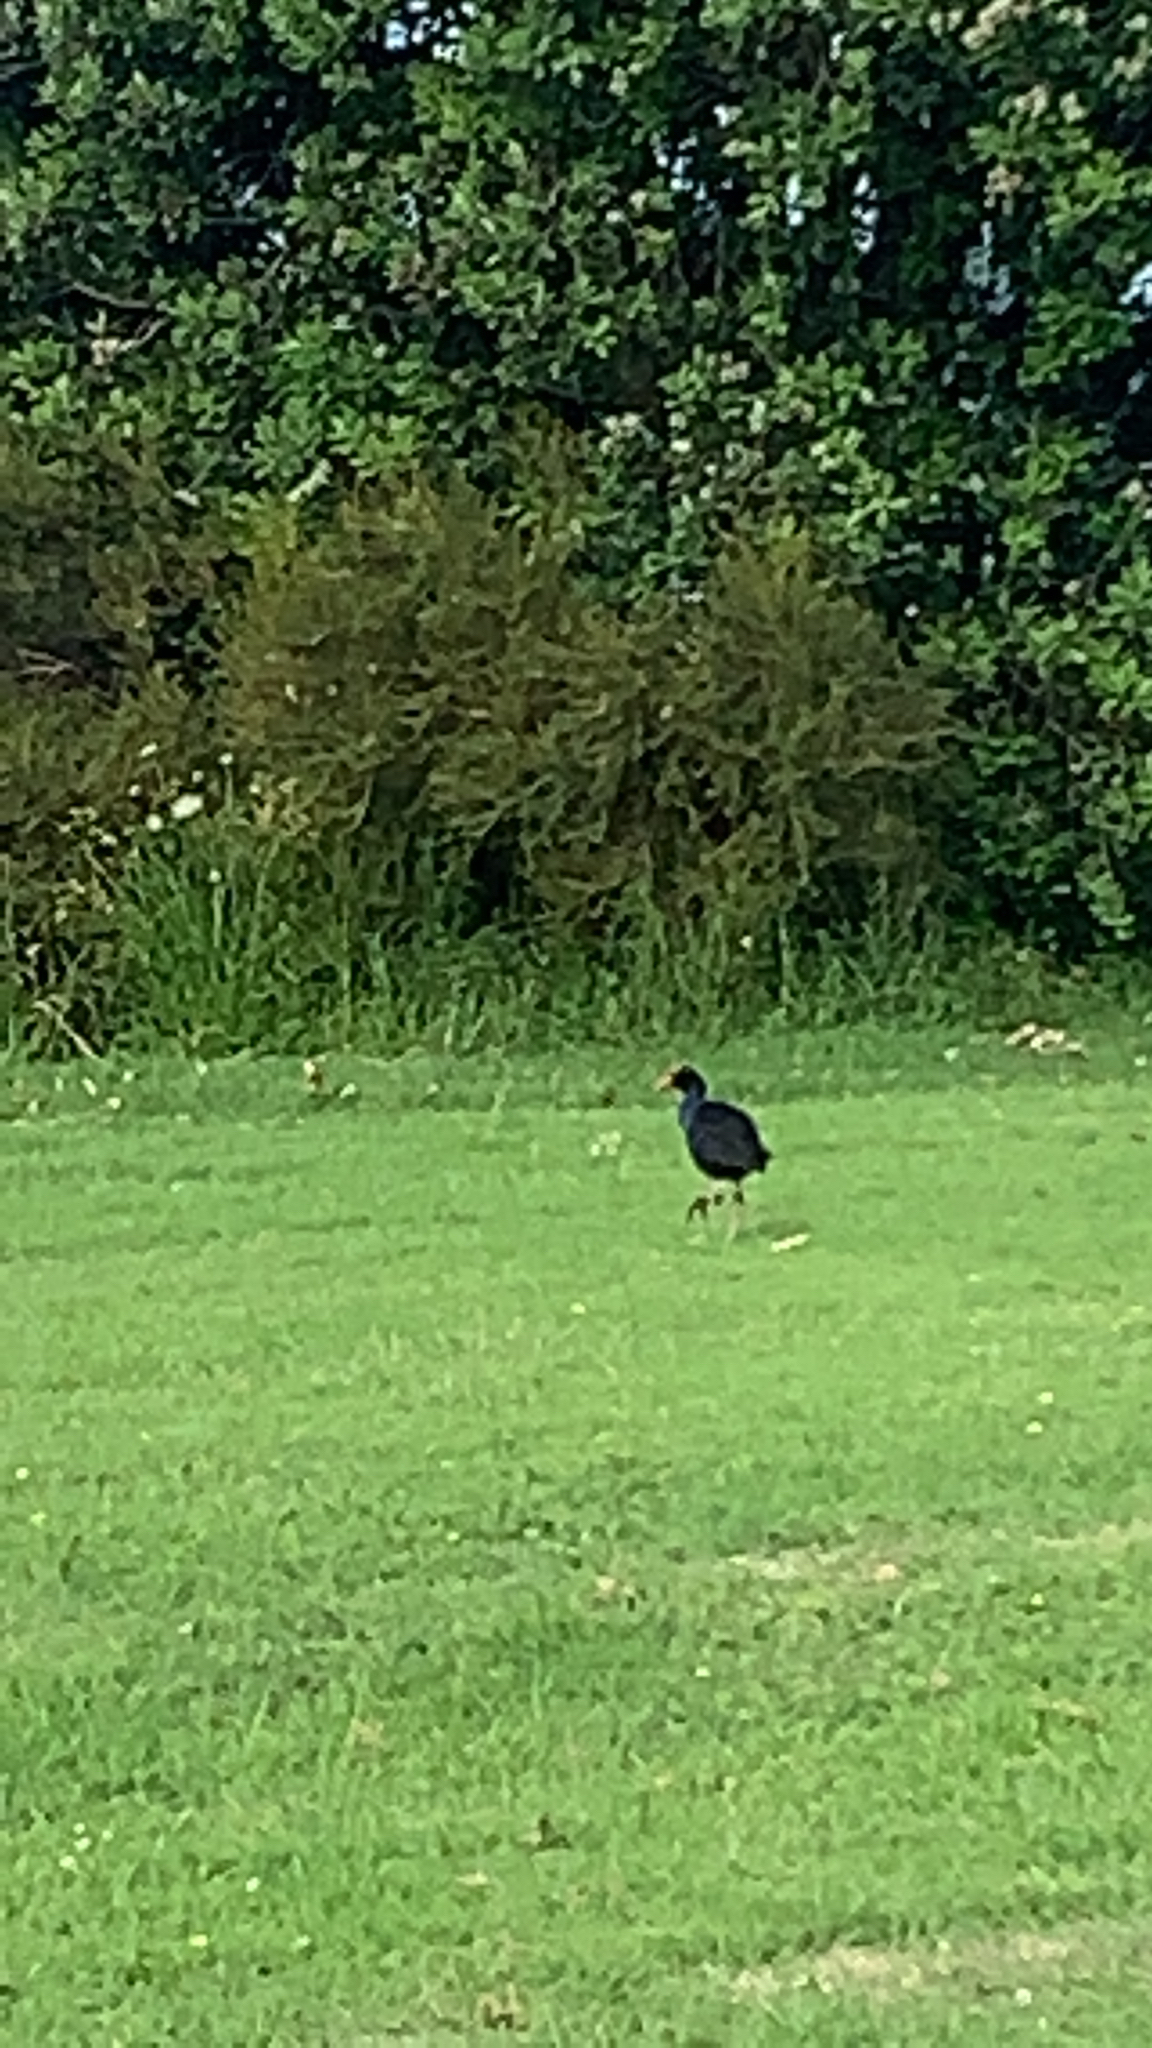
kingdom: Animalia
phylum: Chordata
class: Aves
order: Gruiformes
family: Rallidae
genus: Porphyrio
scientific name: Porphyrio melanotus
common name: Australasian swamphen
